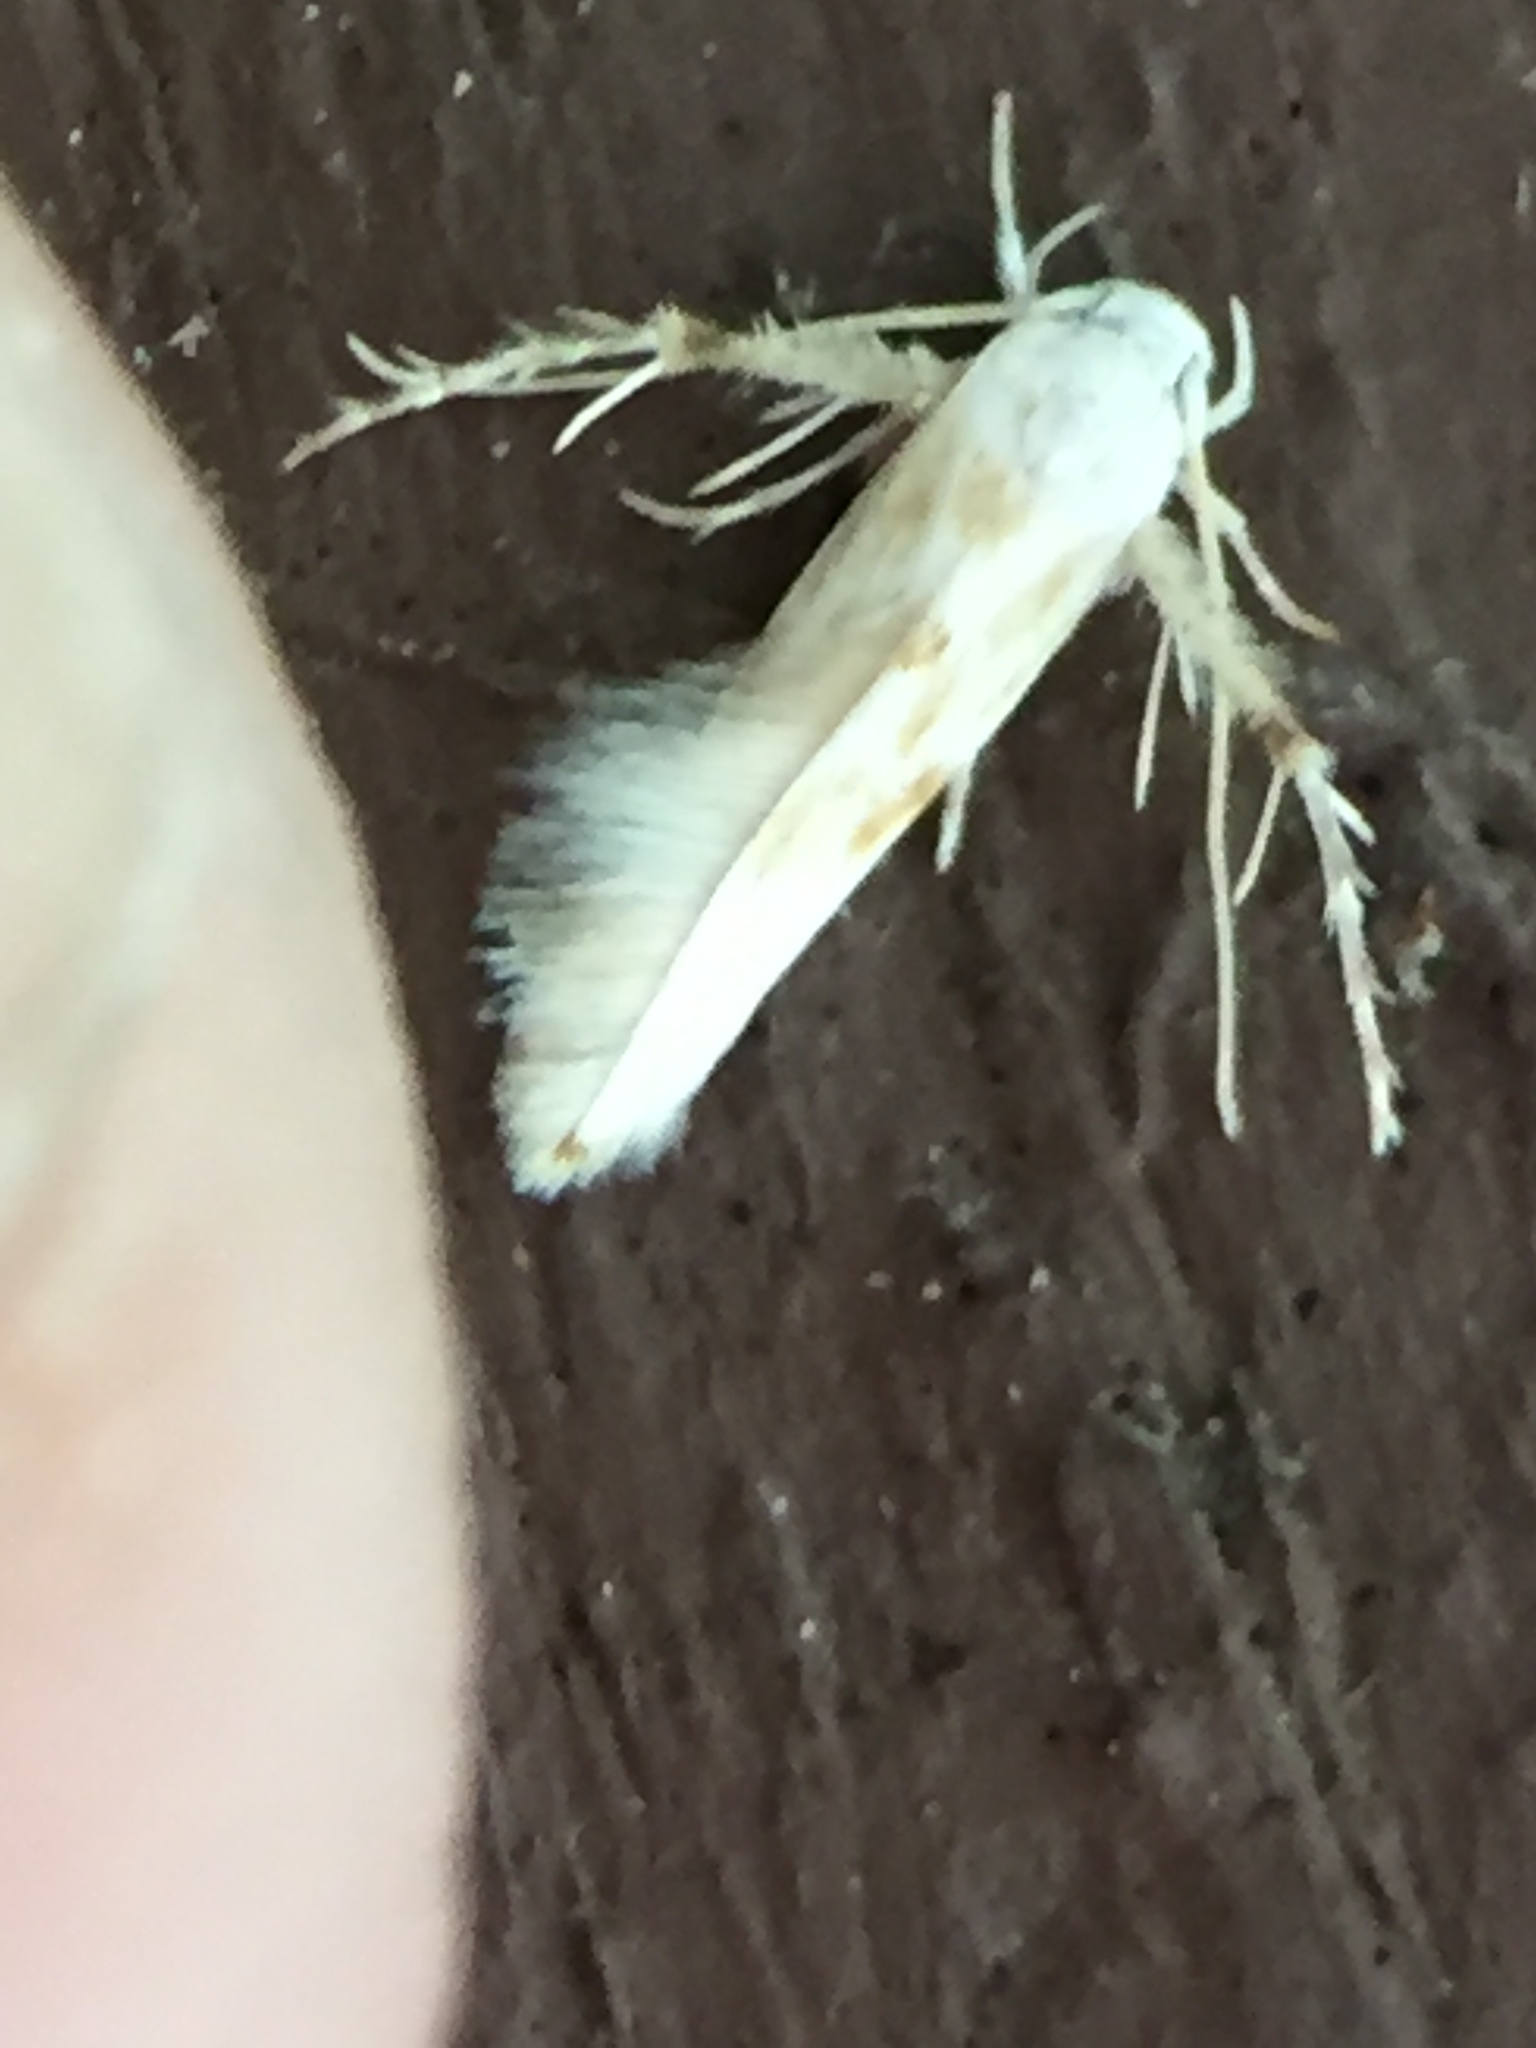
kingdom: Animalia
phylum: Arthropoda
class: Insecta
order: Lepidoptera
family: Stathmopodidae
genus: Calicotis
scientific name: Calicotis crucifera
